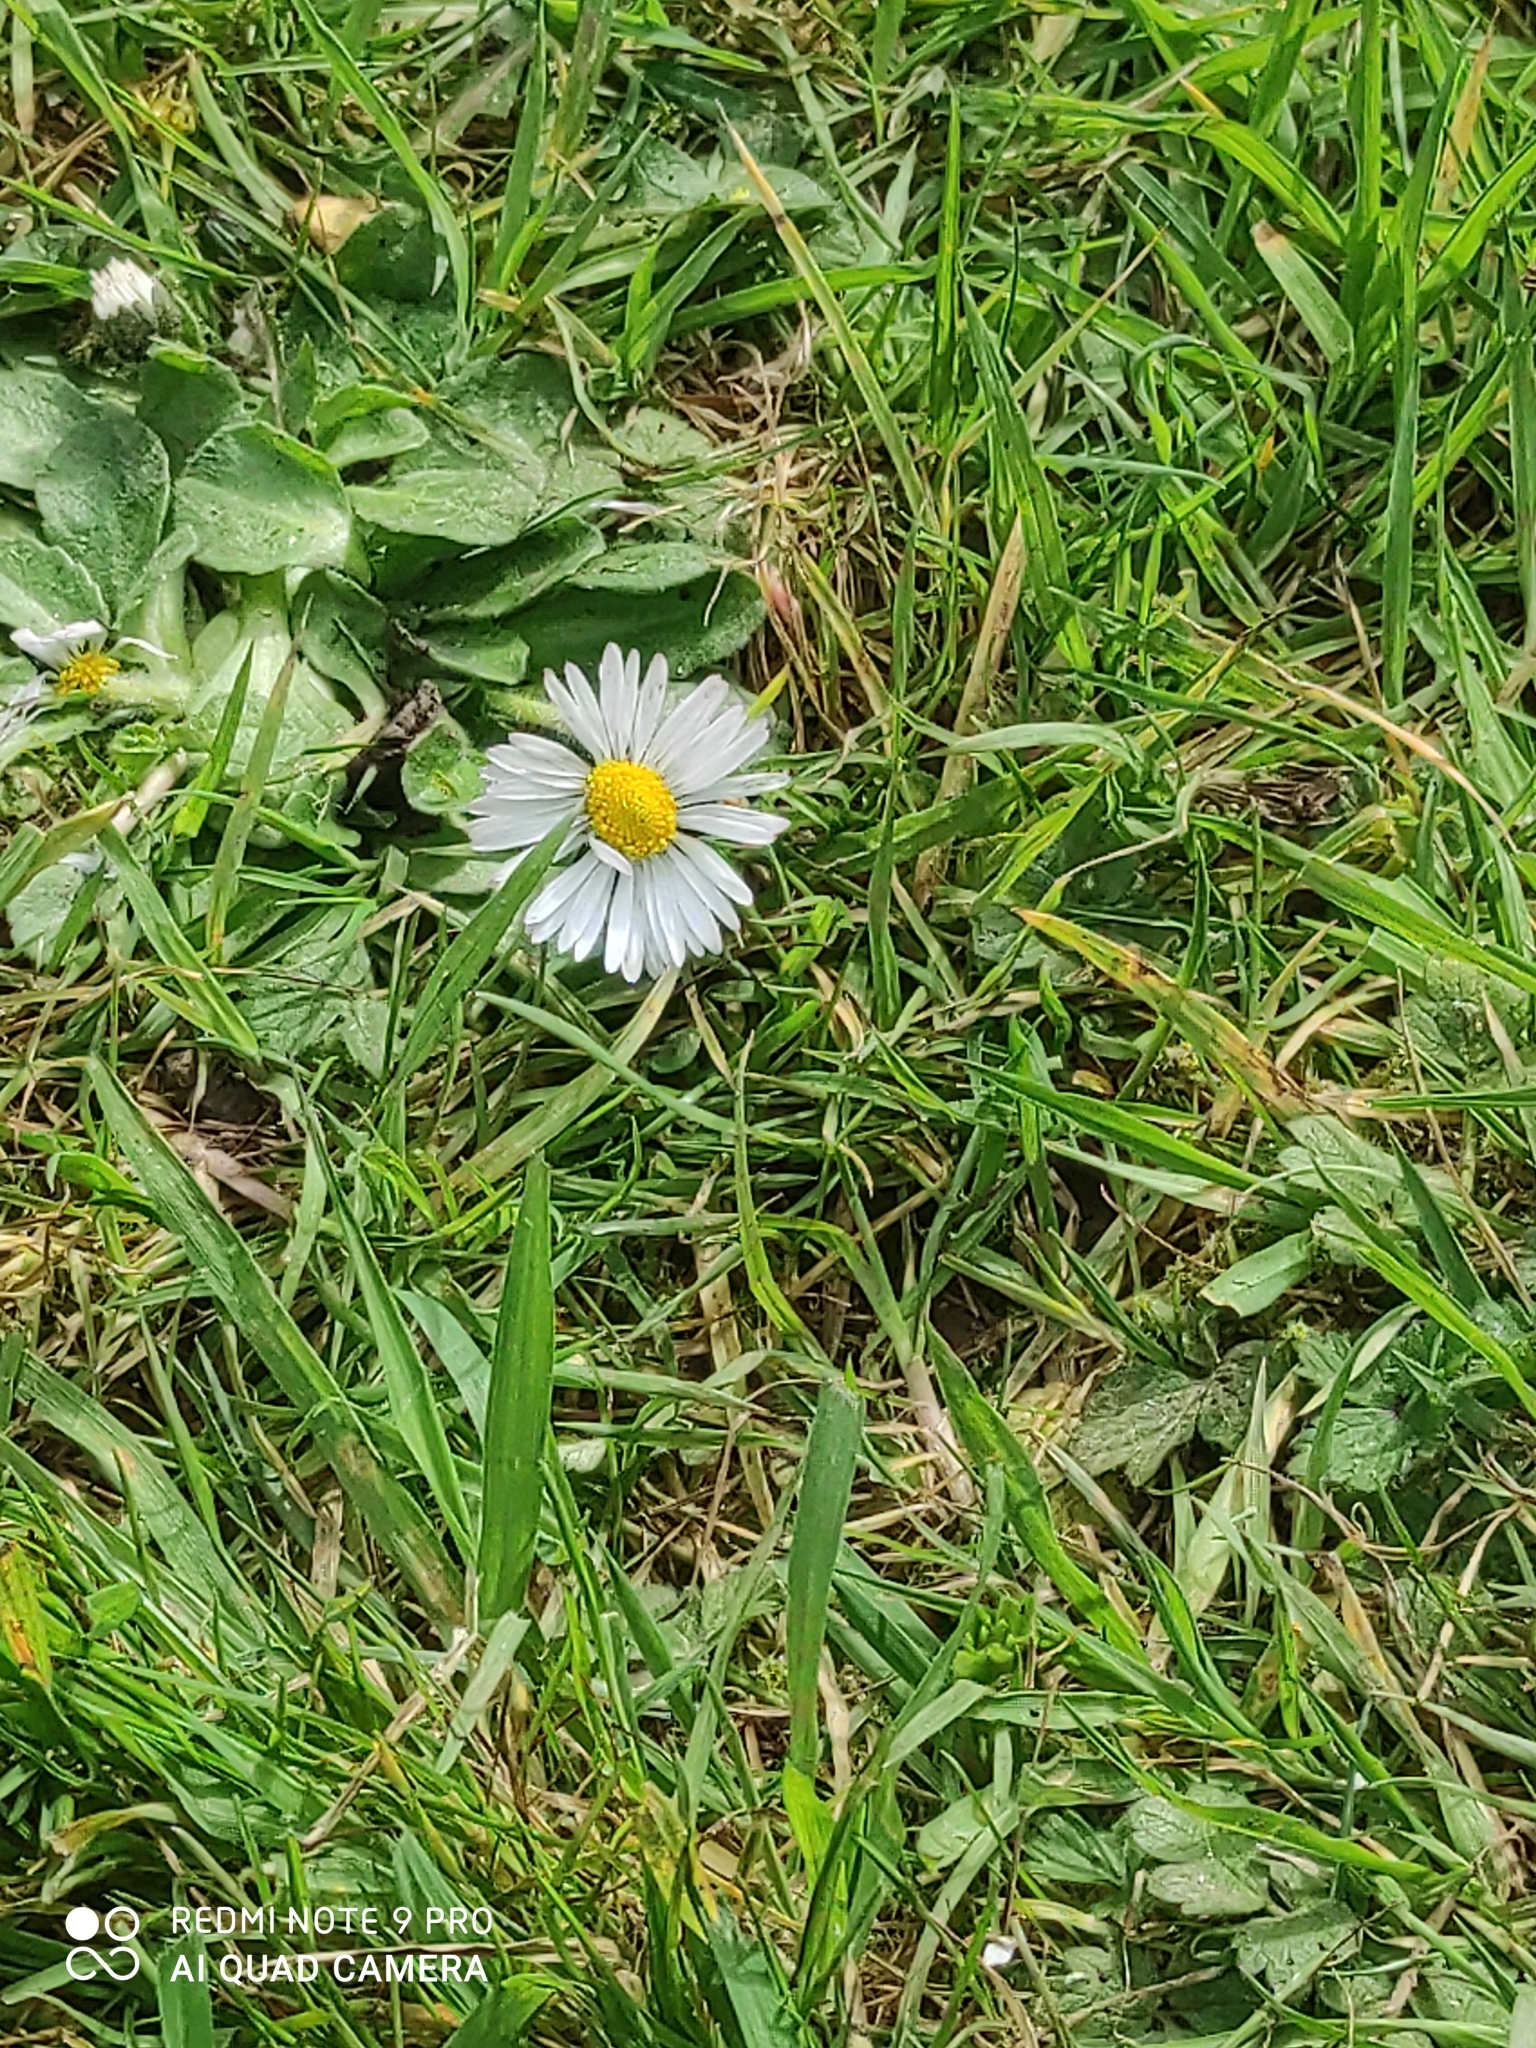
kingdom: Plantae
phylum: Tracheophyta
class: Magnoliopsida
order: Asterales
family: Asteraceae
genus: Bellis
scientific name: Bellis perennis
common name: Lawndaisy
